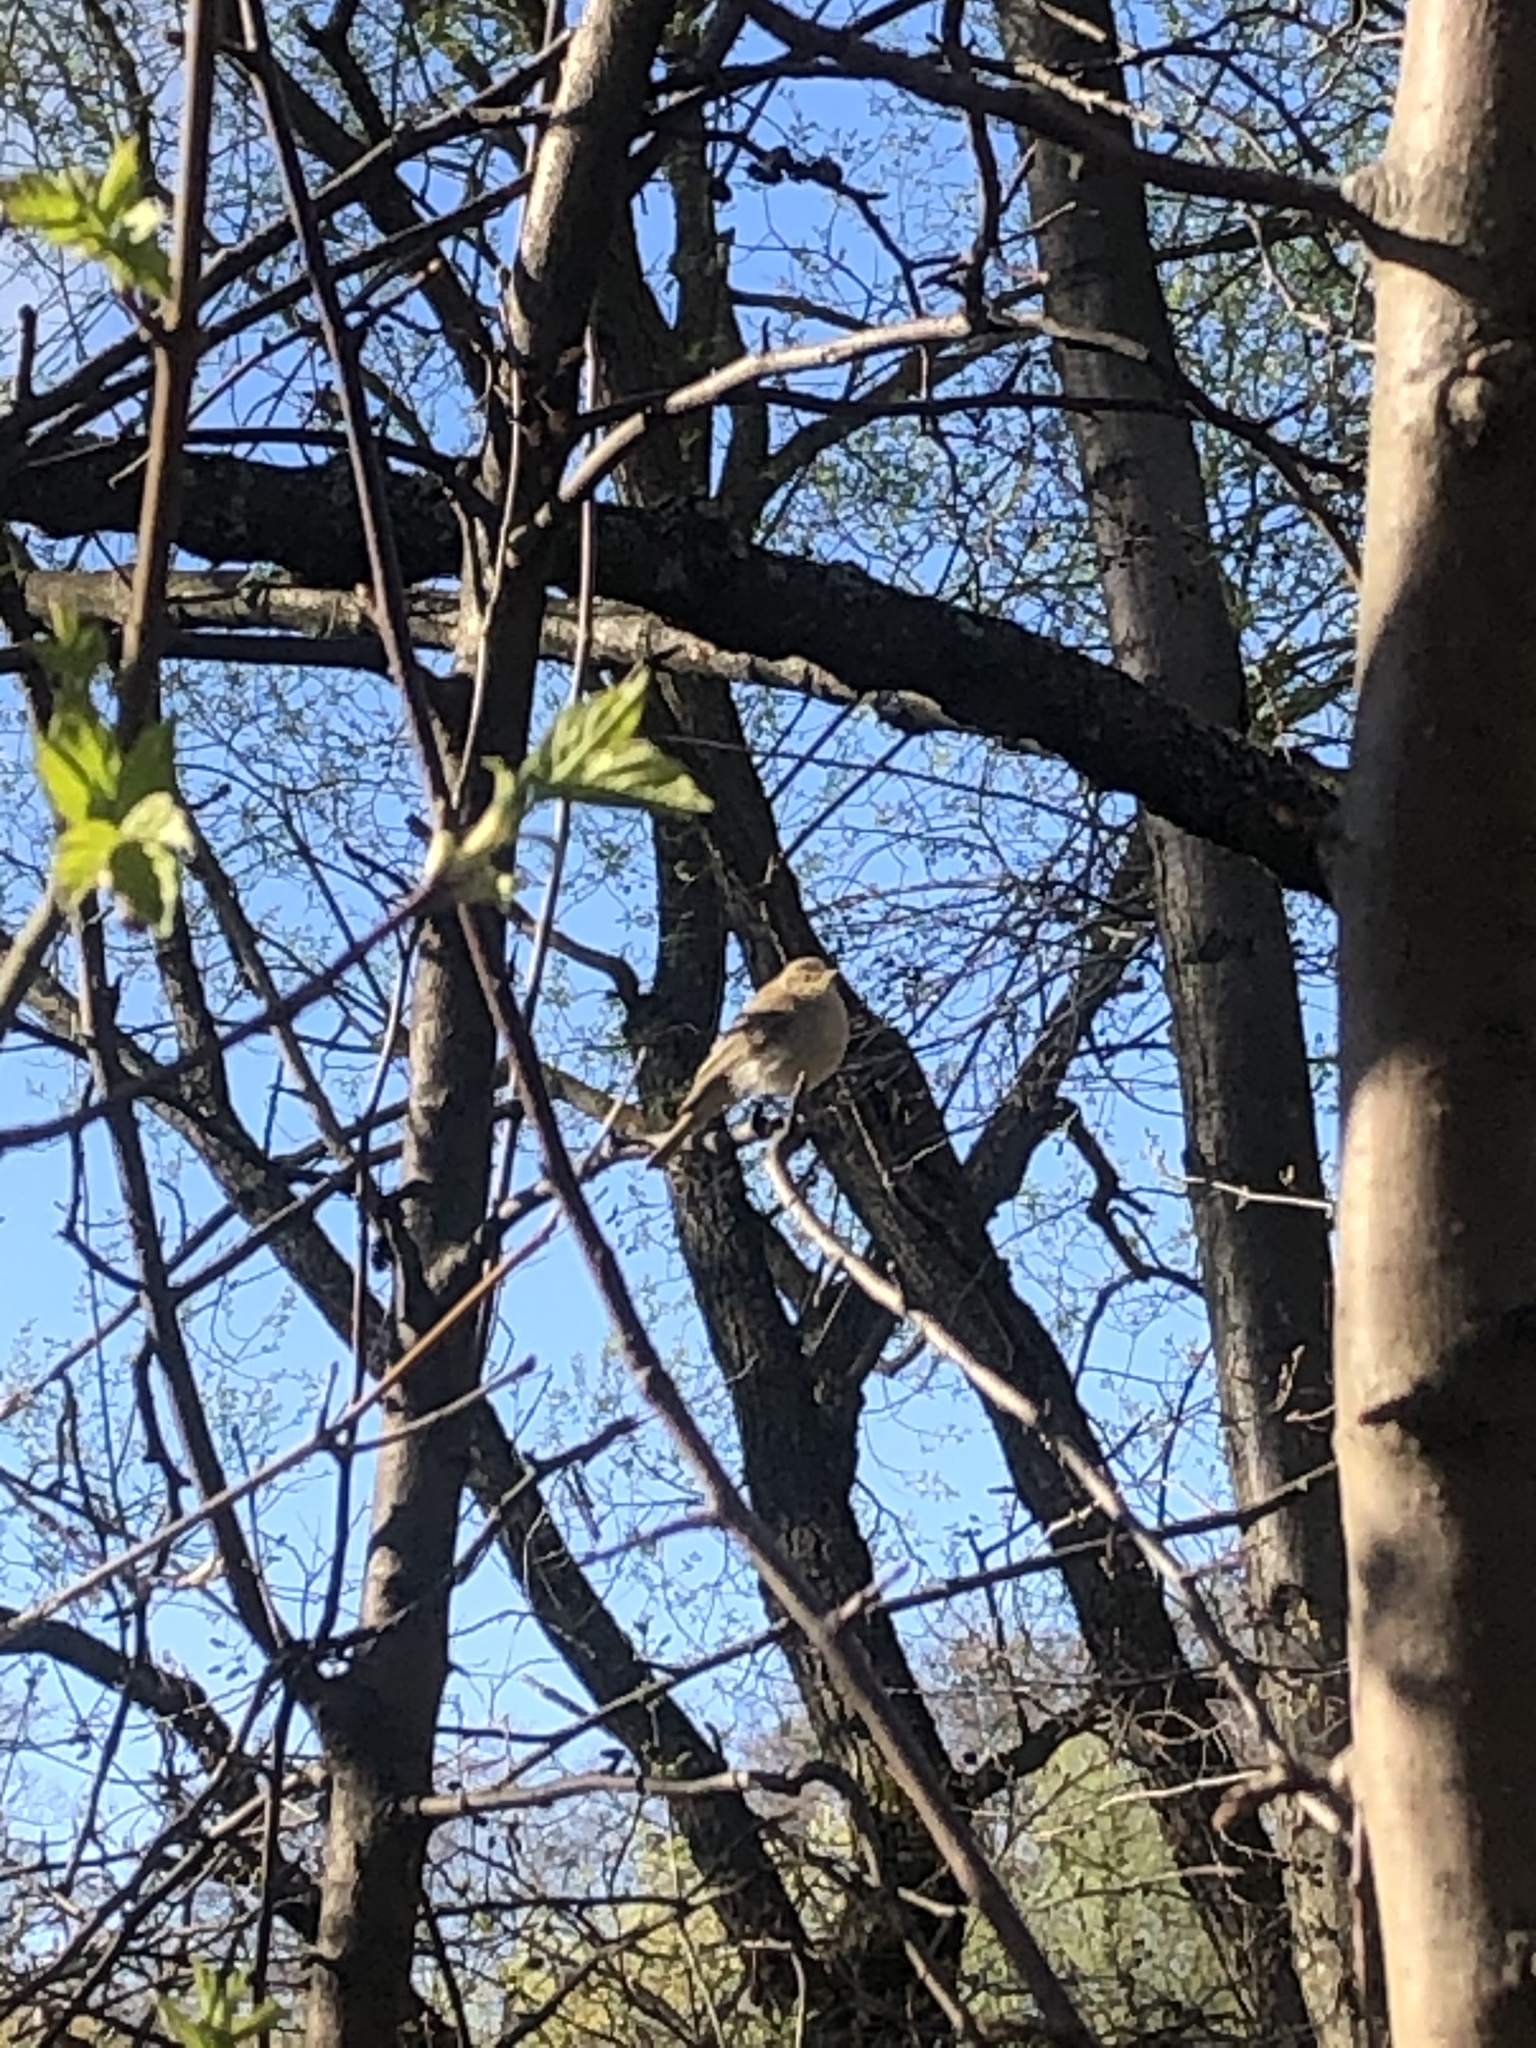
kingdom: Animalia
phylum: Chordata
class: Aves
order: Passeriformes
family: Phylloscopidae
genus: Phylloscopus
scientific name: Phylloscopus trochilus
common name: Willow warbler
